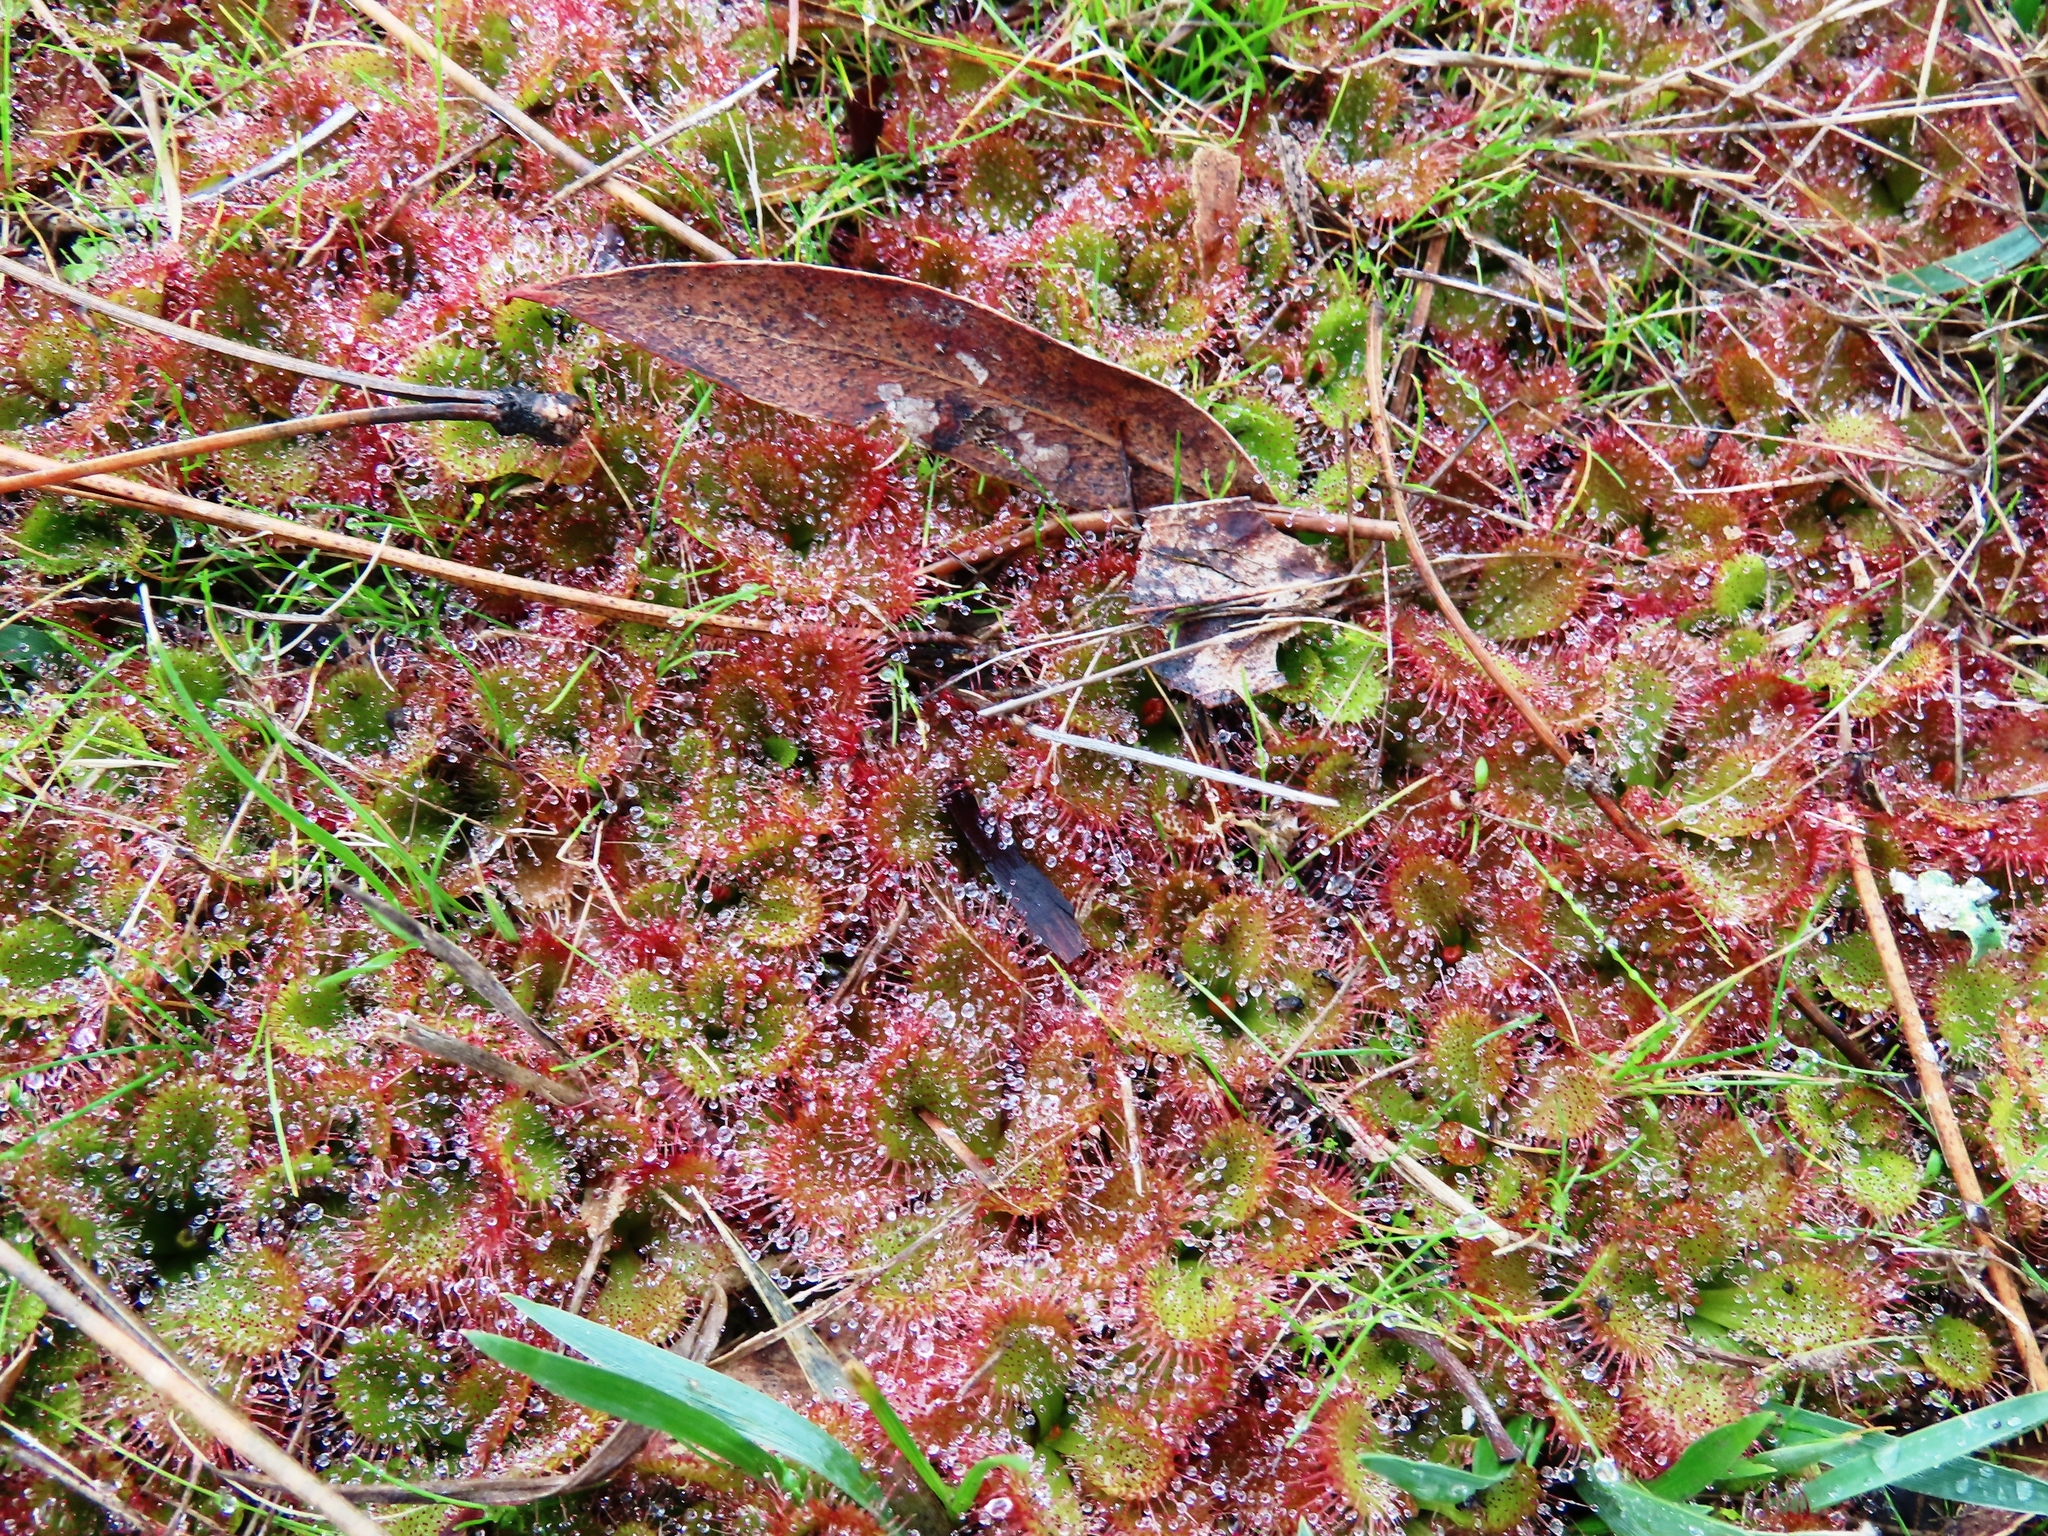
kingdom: Plantae
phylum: Tracheophyta
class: Magnoliopsida
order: Caryophyllales
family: Droseraceae
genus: Drosera
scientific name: Drosera aberrans
